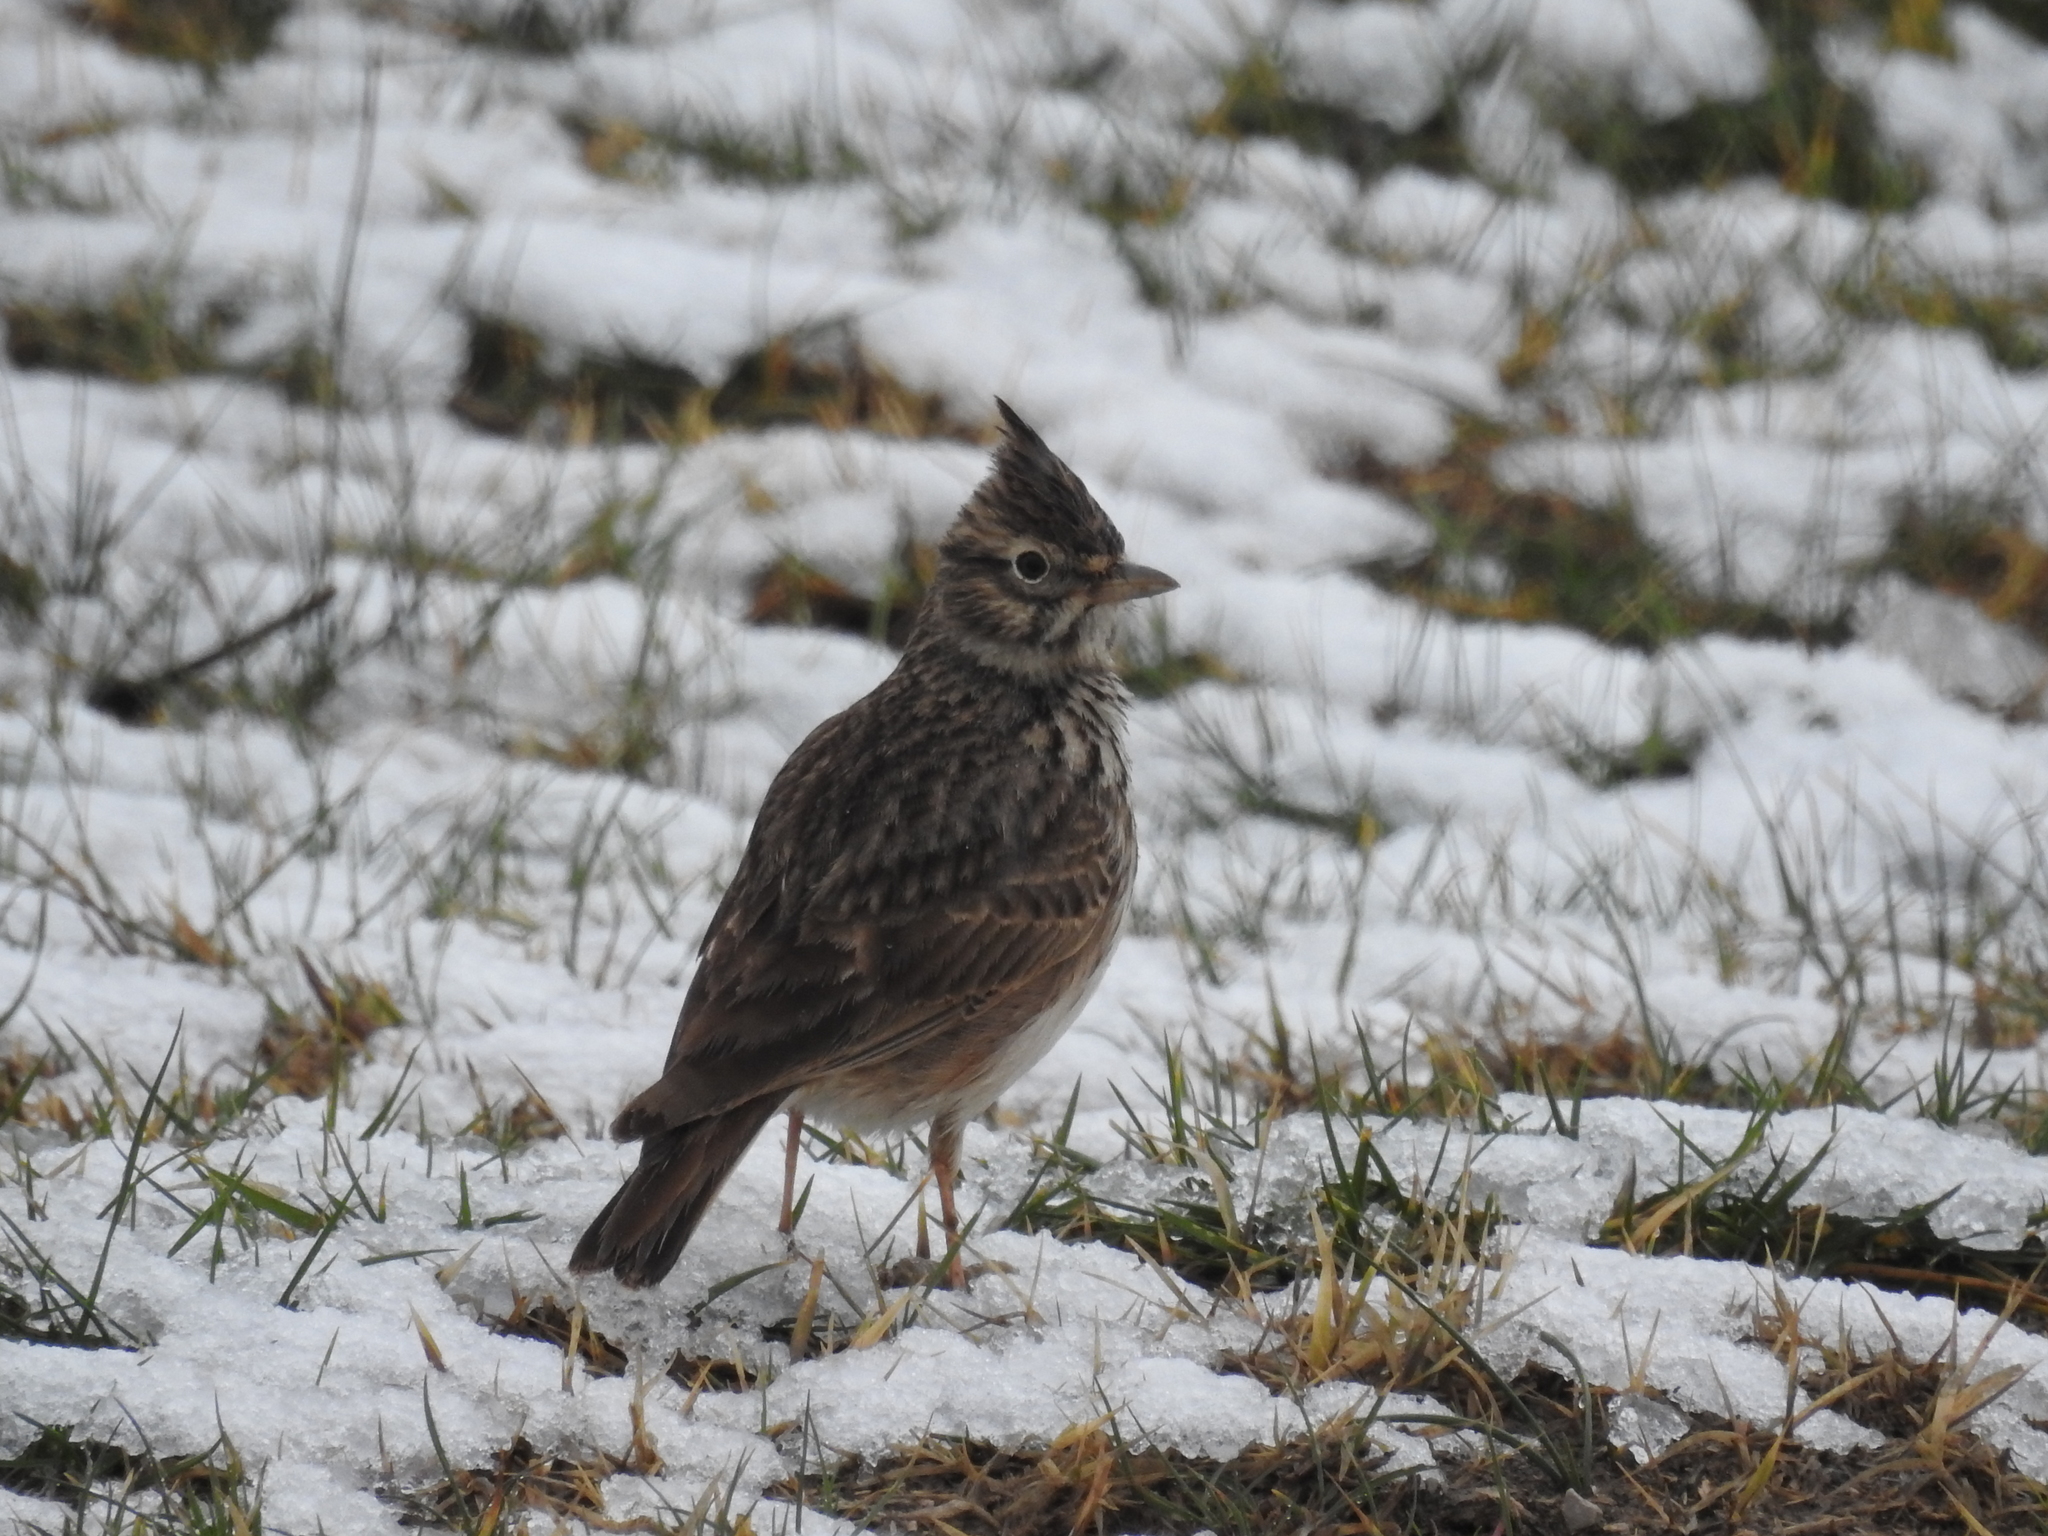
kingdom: Animalia
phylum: Chordata
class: Aves
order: Passeriformes
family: Alaudidae
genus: Galerida
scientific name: Galerida theklae
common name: Thekla lark
